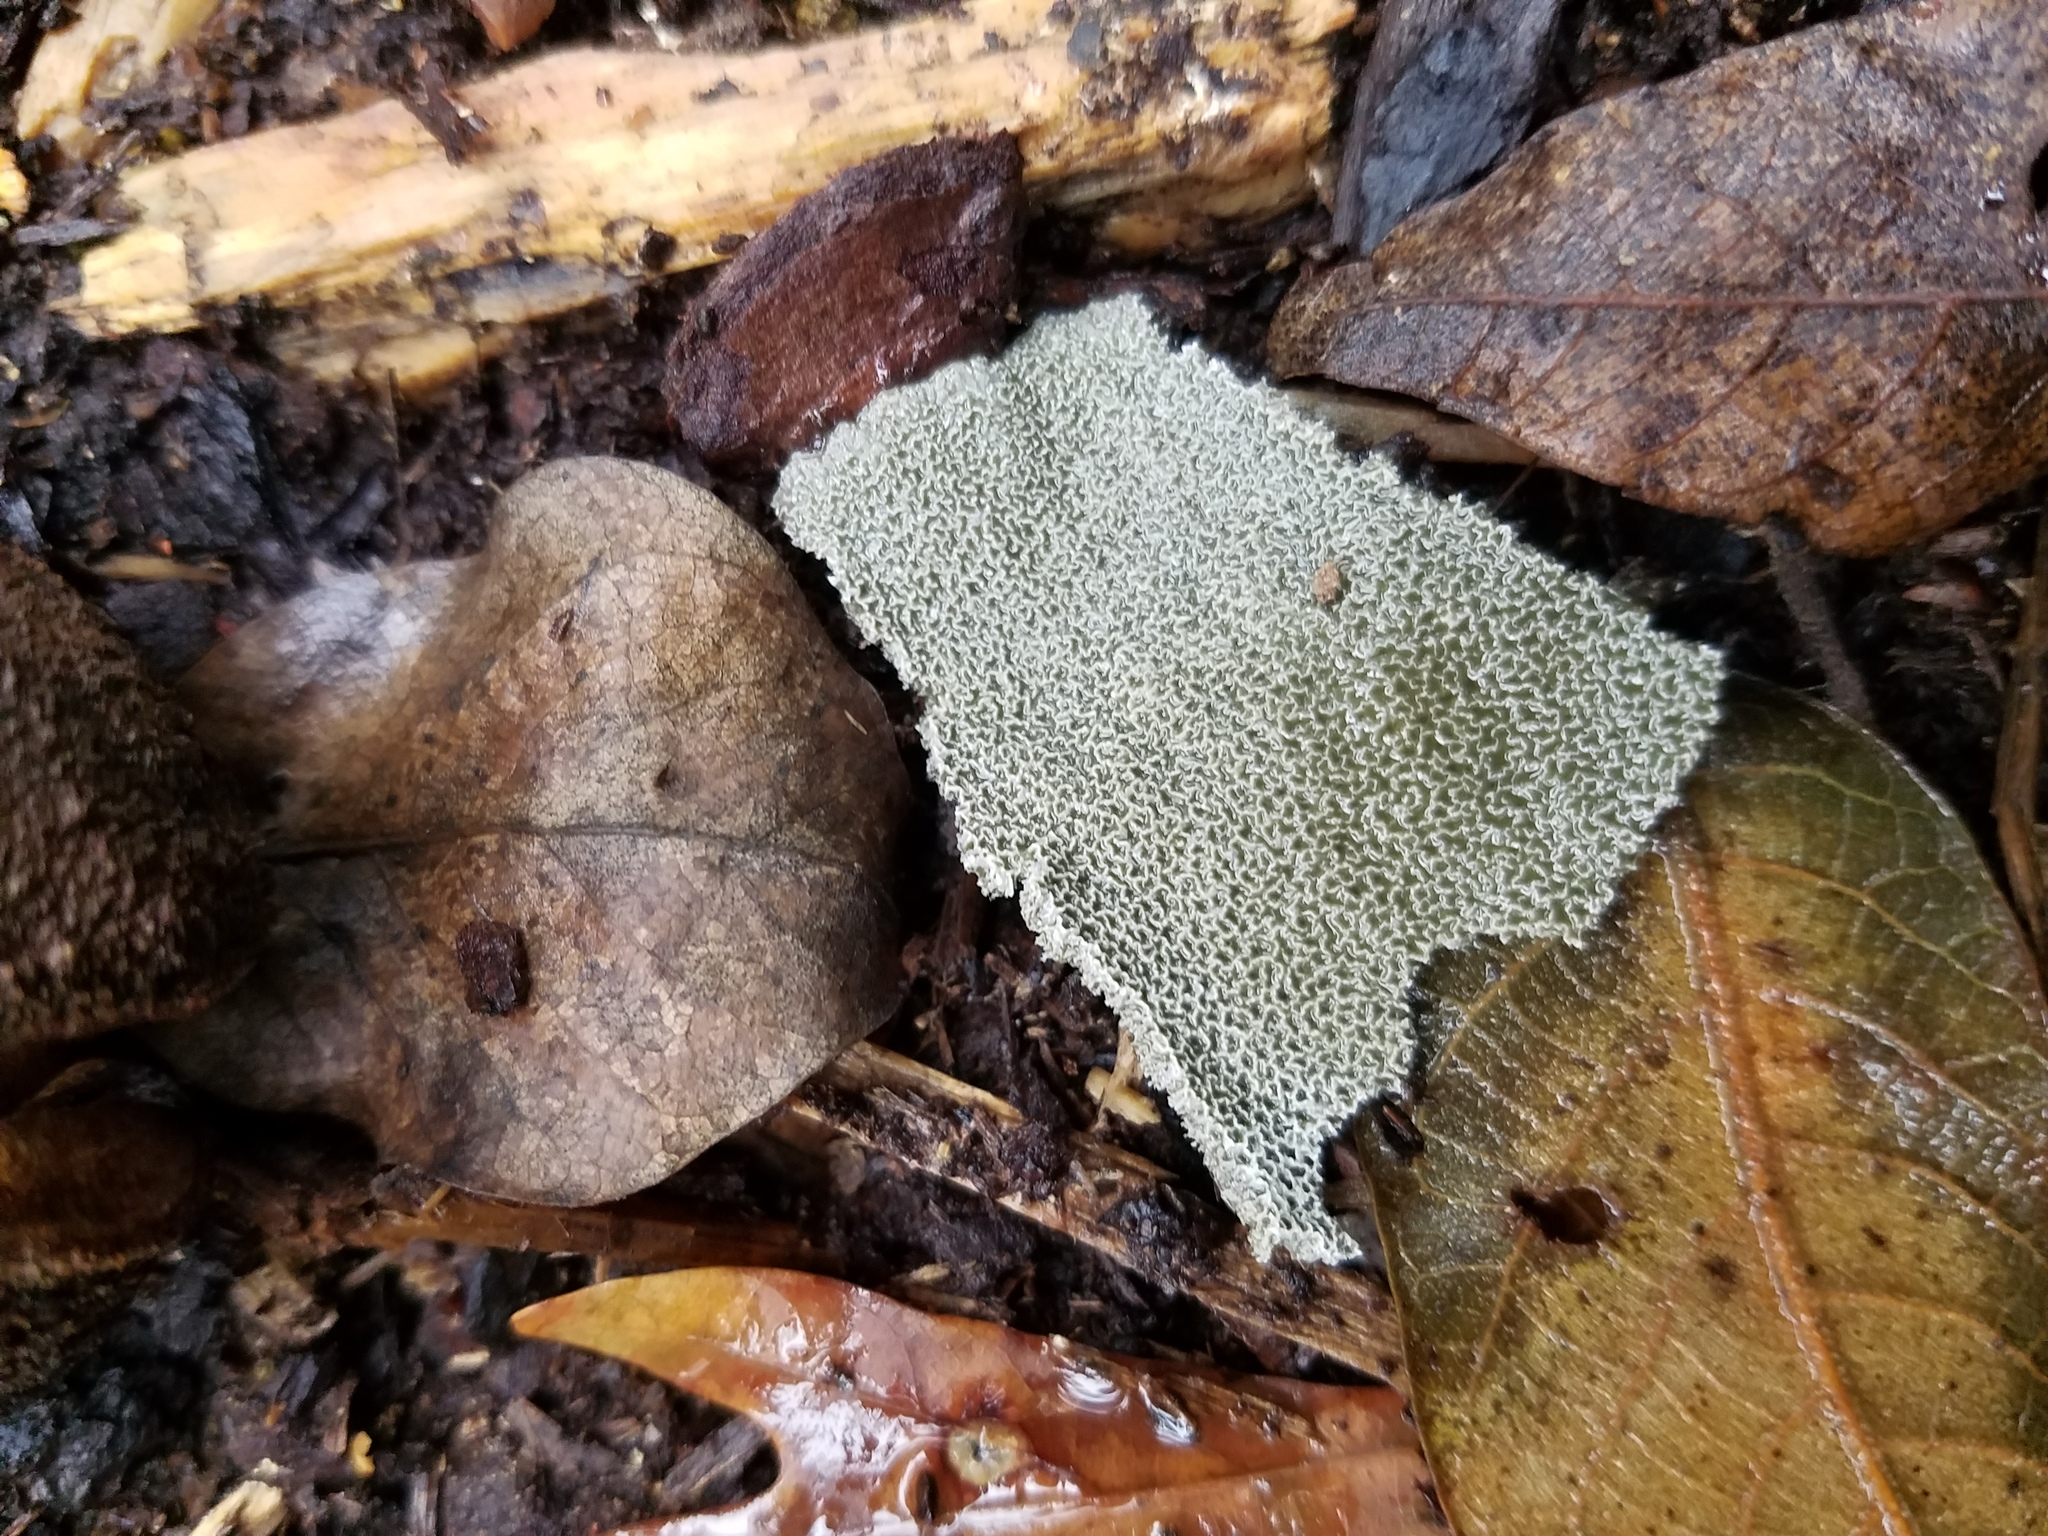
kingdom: Fungi
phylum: Basidiomycota
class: Agaricomycetes
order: Phallales
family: Phallaceae
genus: Phallus
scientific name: Phallus ravenelii
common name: Ravenel's stinkhorn
